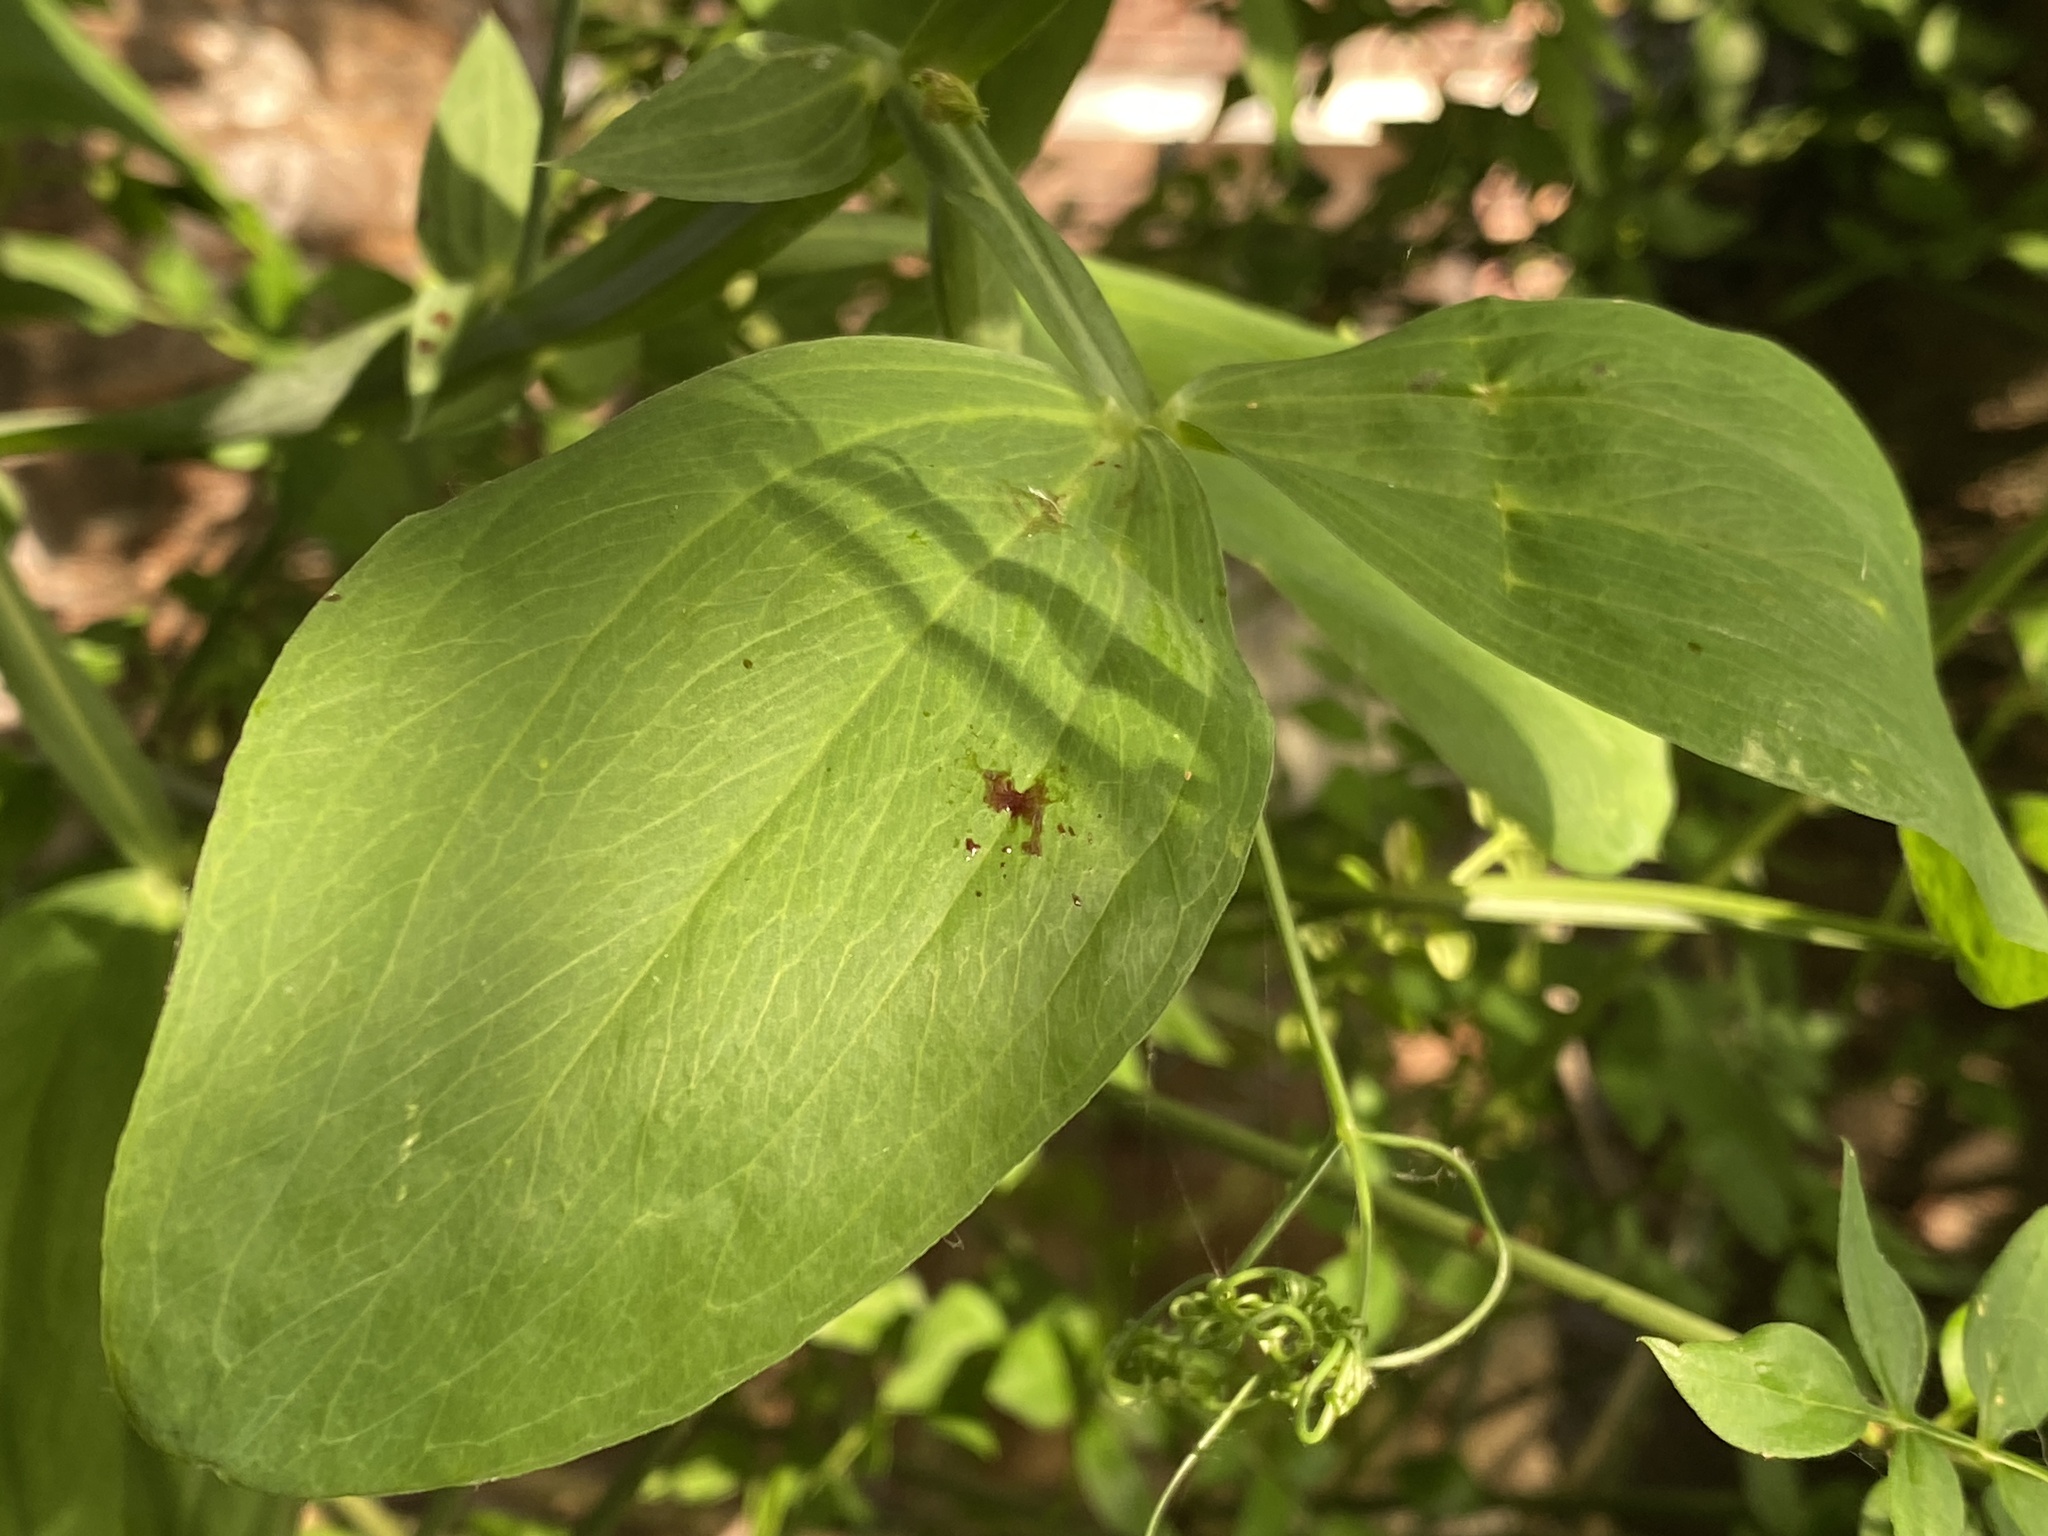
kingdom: Plantae
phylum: Tracheophyta
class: Magnoliopsida
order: Fabales
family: Fabaceae
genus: Lathyrus
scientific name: Lathyrus latifolius
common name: Perennial pea
